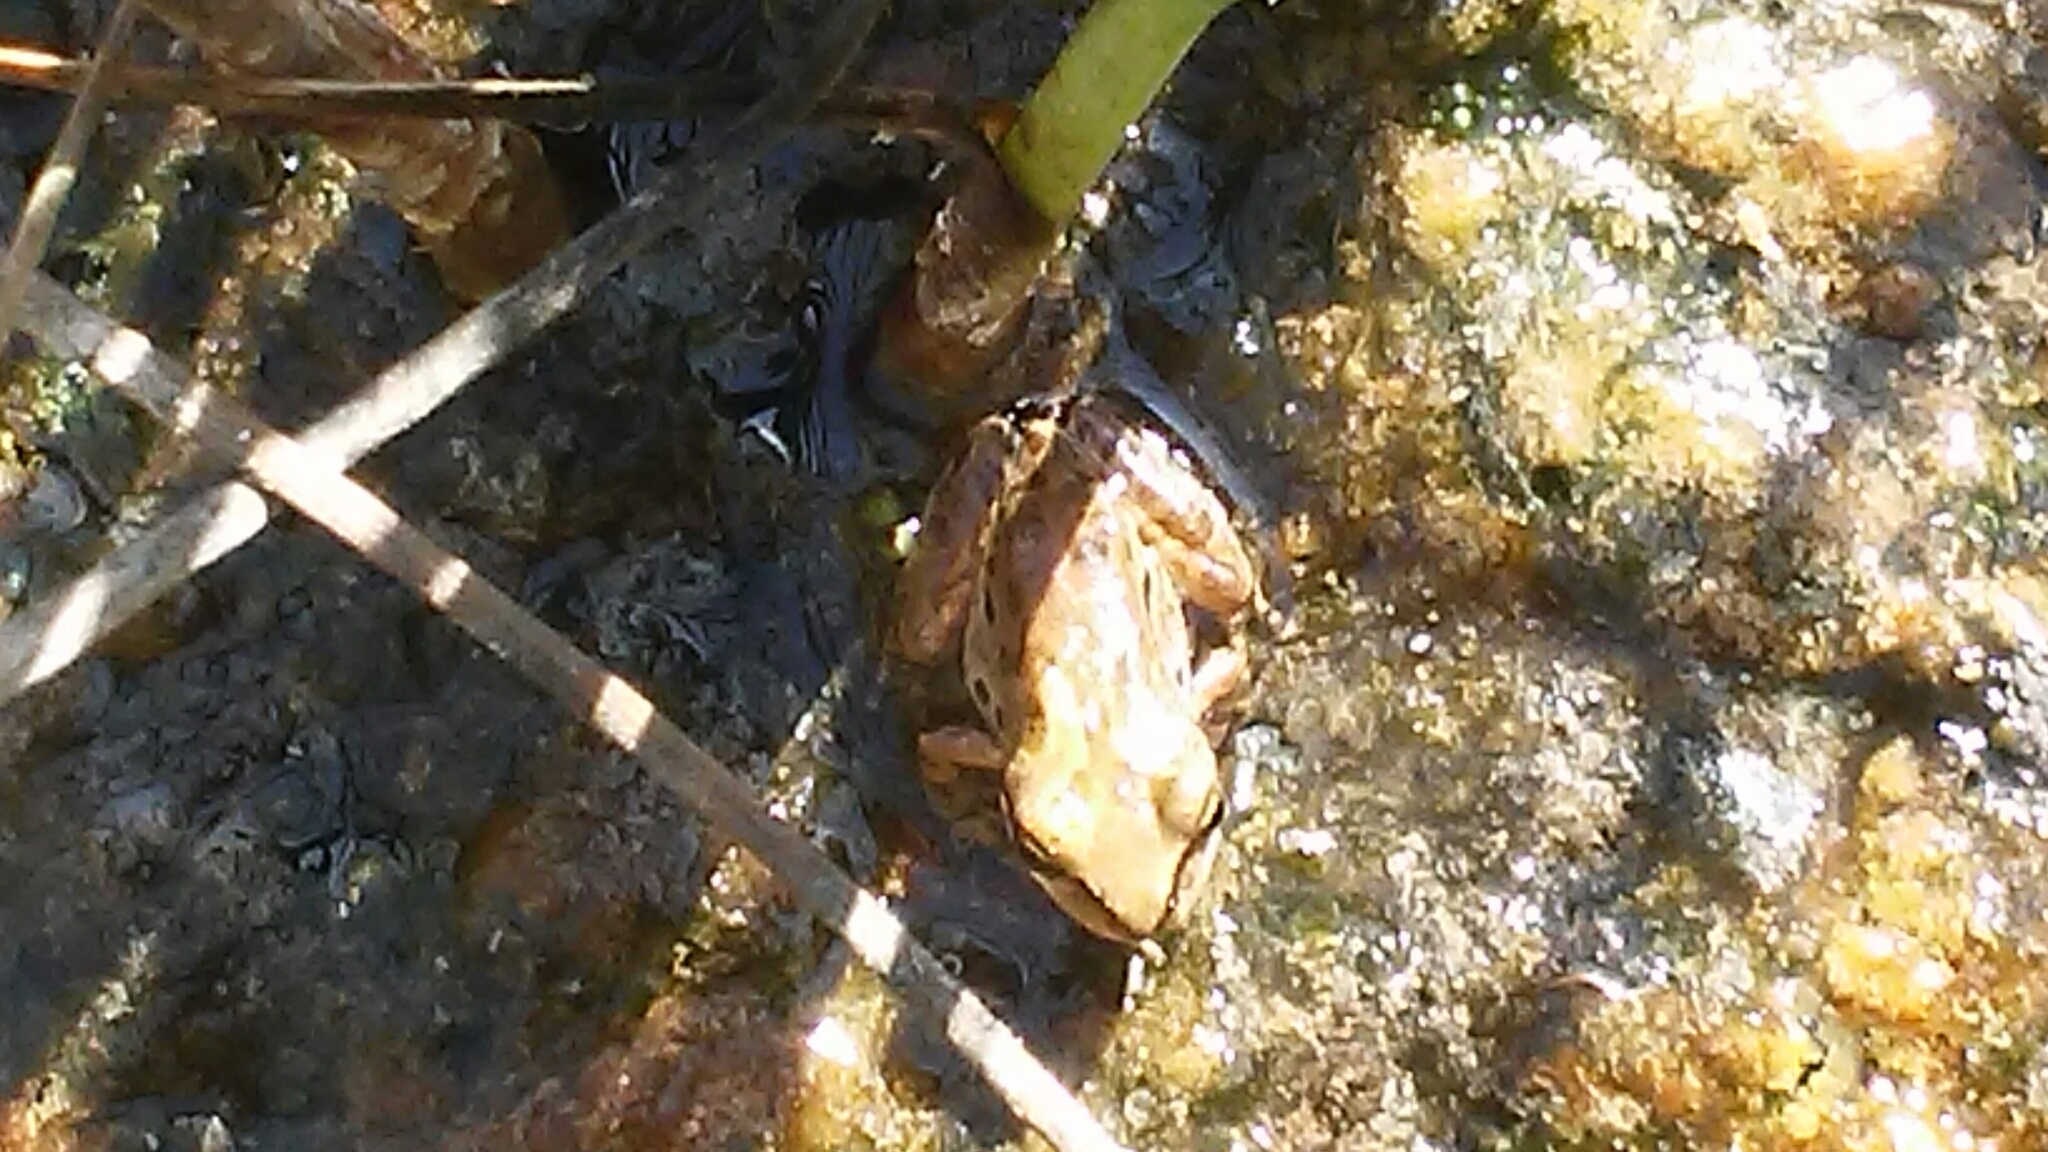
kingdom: Animalia
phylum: Chordata
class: Amphibia
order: Anura
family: Hylidae
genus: Pseudacris
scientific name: Pseudacris regilla
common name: Pacific chorus frog
